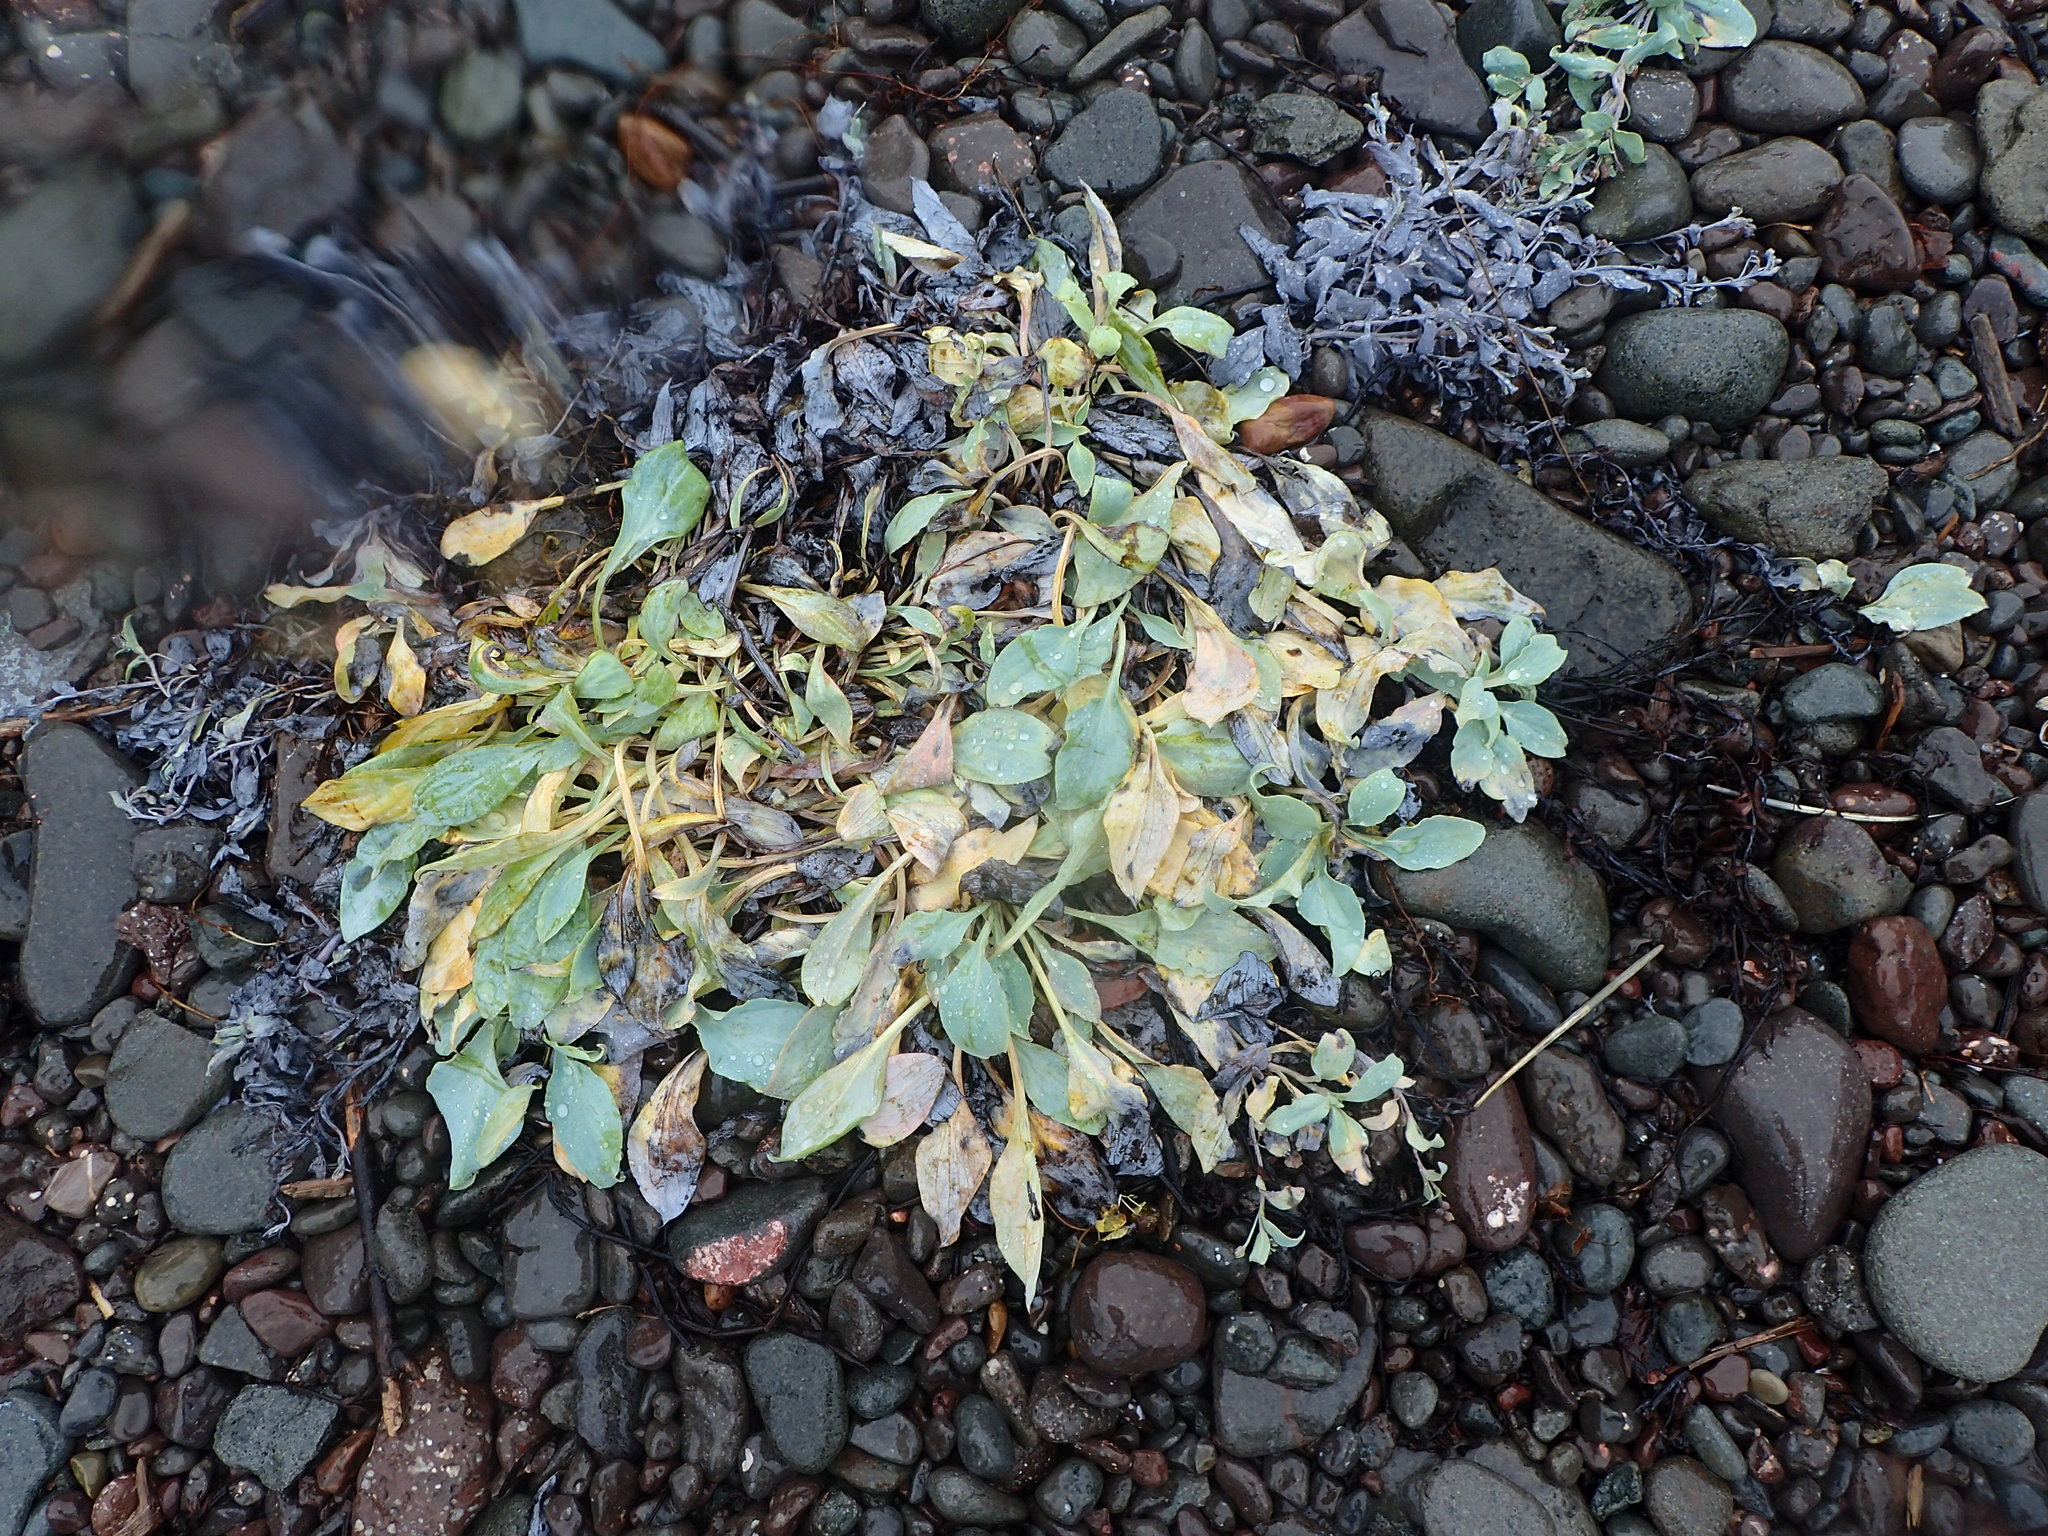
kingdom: Plantae
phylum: Tracheophyta
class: Magnoliopsida
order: Boraginales
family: Boraginaceae
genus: Mertensia
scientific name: Mertensia maritima
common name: Oysterplant
